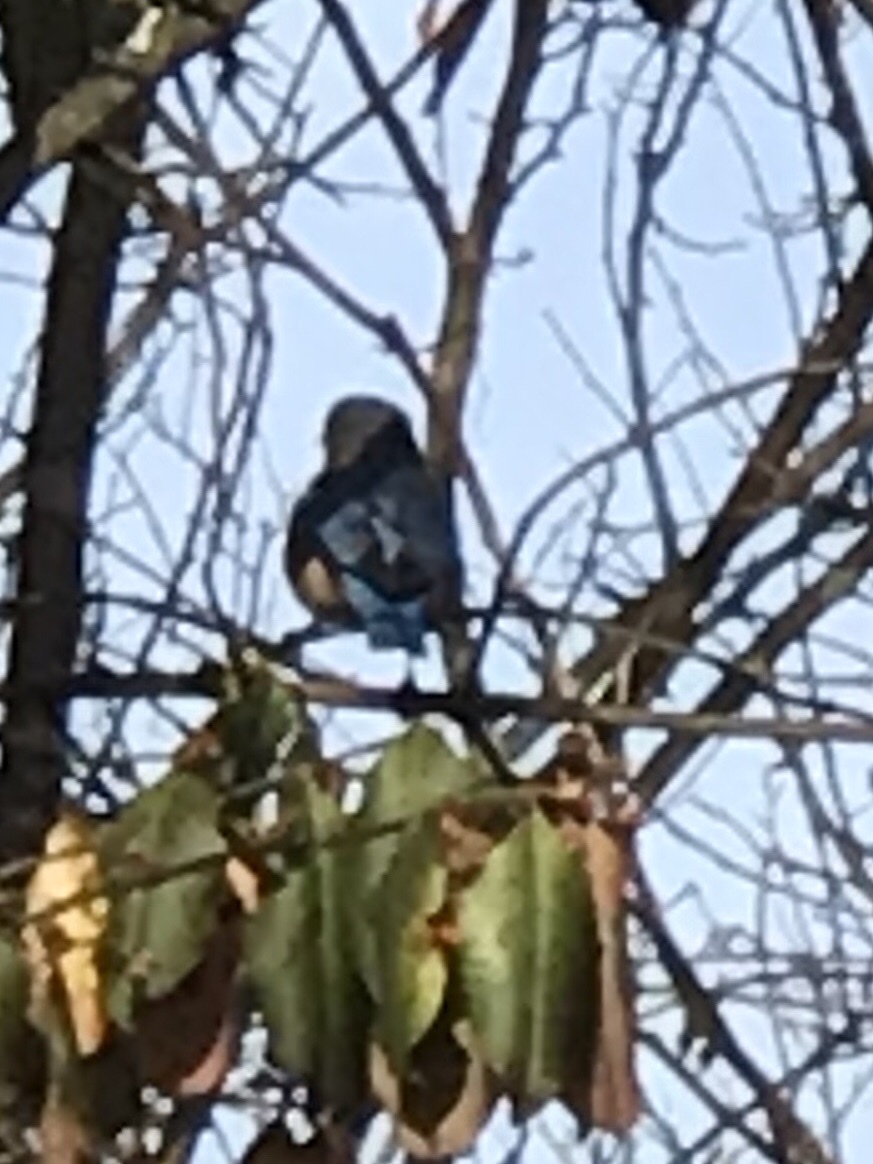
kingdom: Animalia
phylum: Chordata
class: Aves
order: Passeriformes
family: Turdidae
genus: Sialia
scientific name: Sialia sialis
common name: Eastern bluebird
